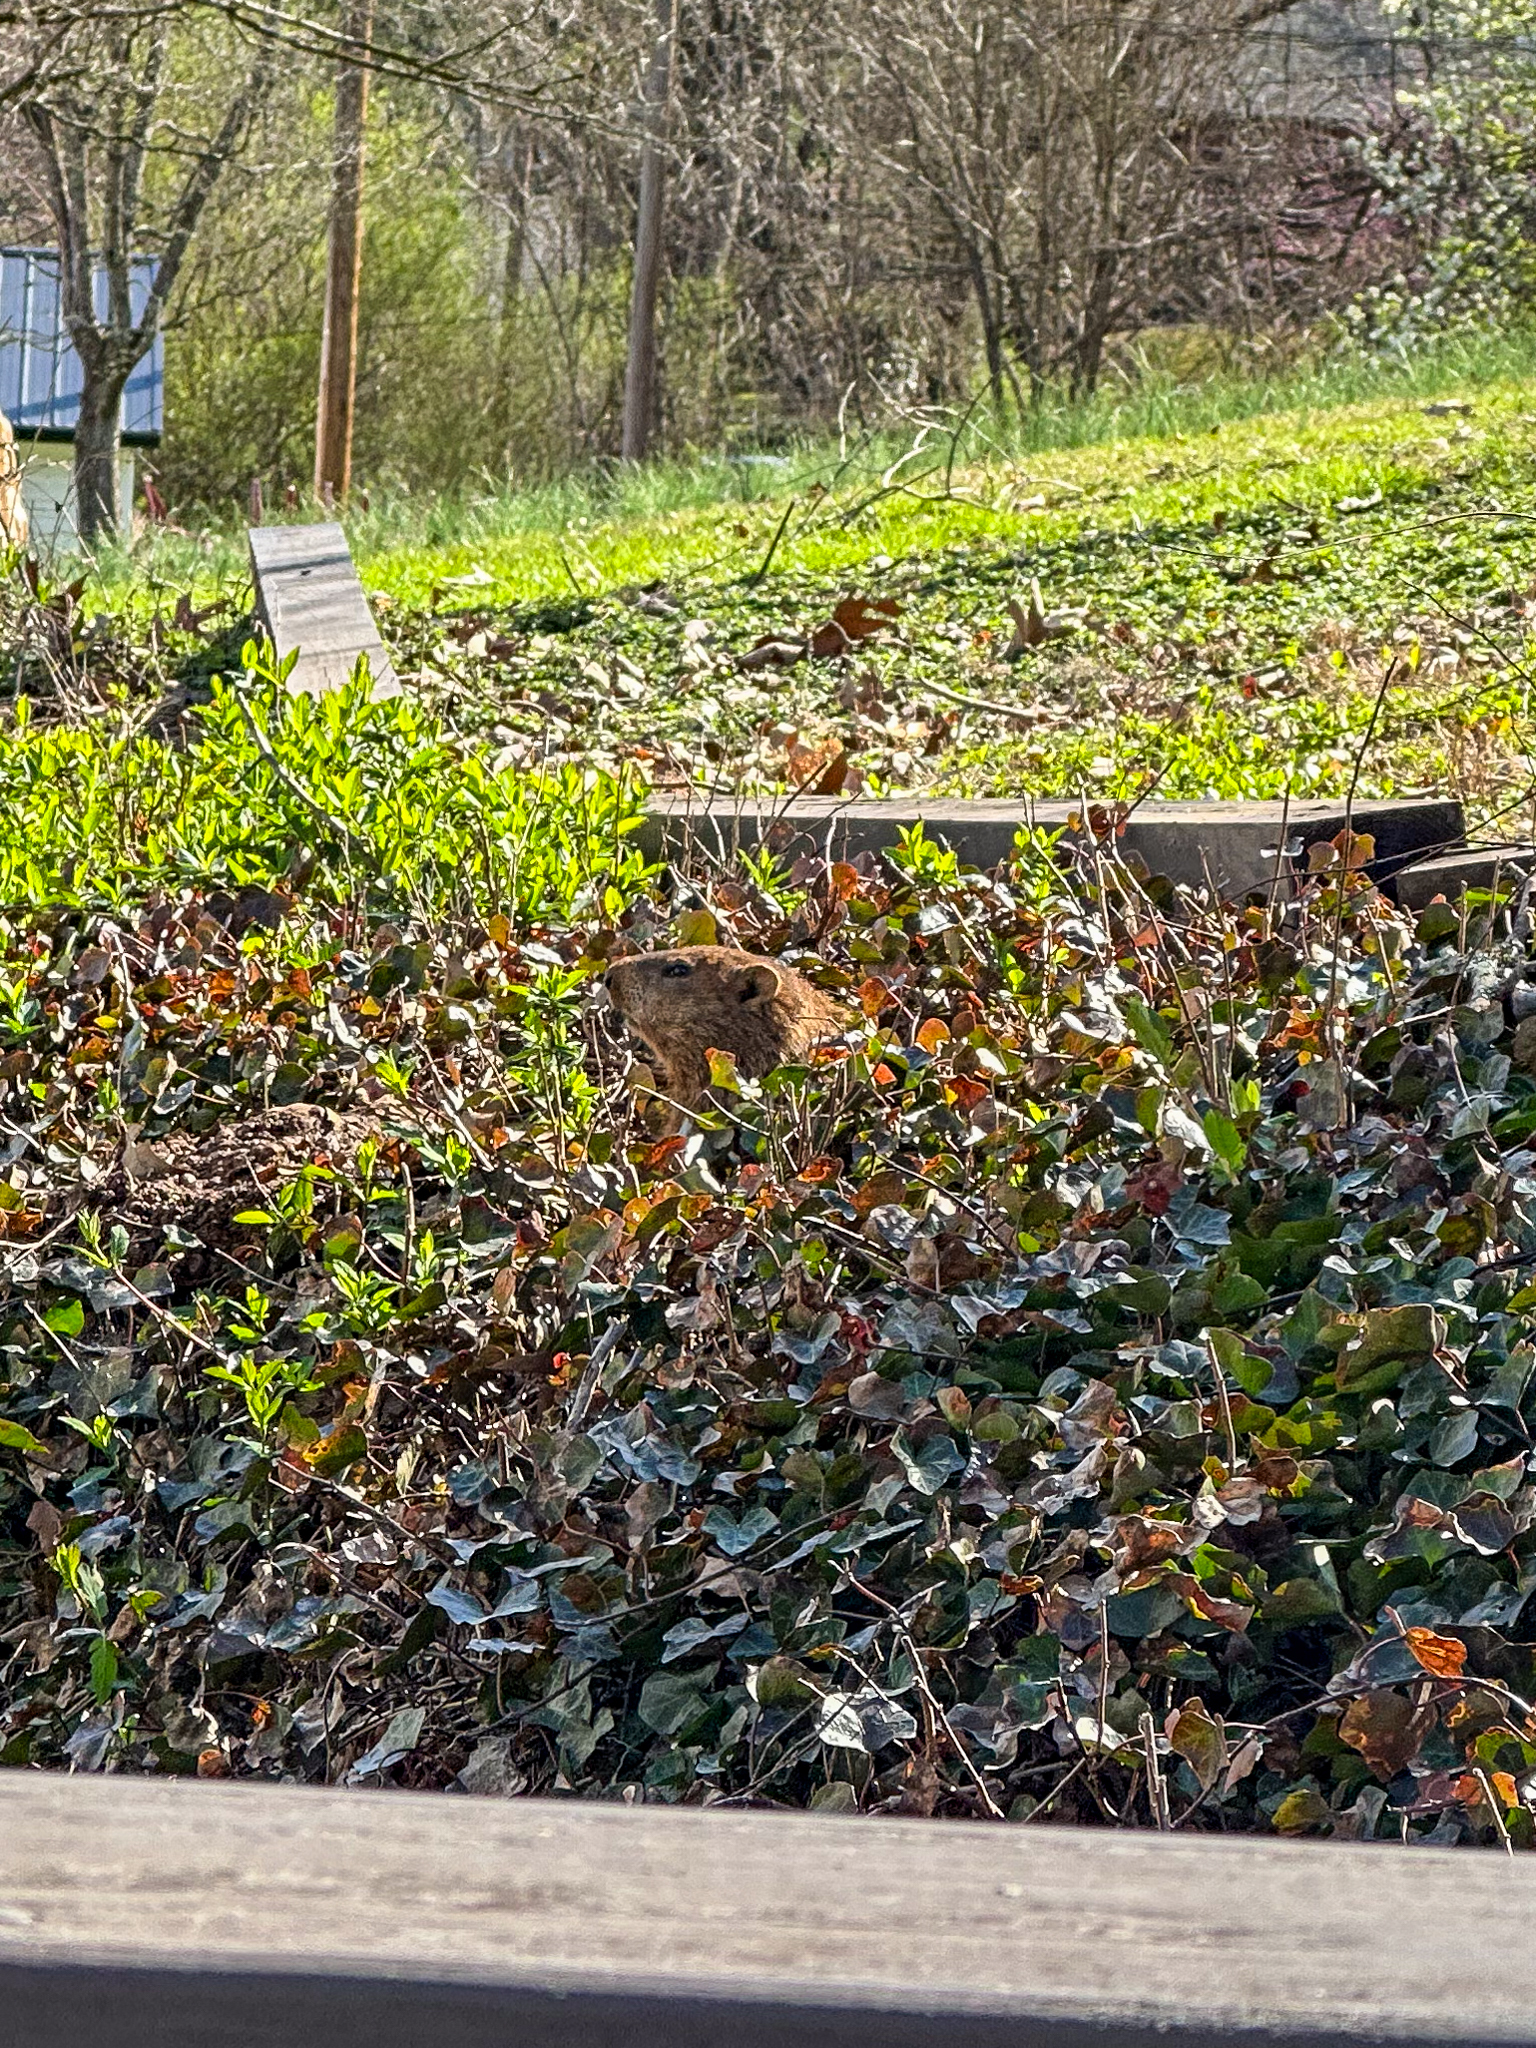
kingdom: Animalia
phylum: Chordata
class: Mammalia
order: Rodentia
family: Sciuridae
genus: Marmota
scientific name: Marmota monax
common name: Groundhog
